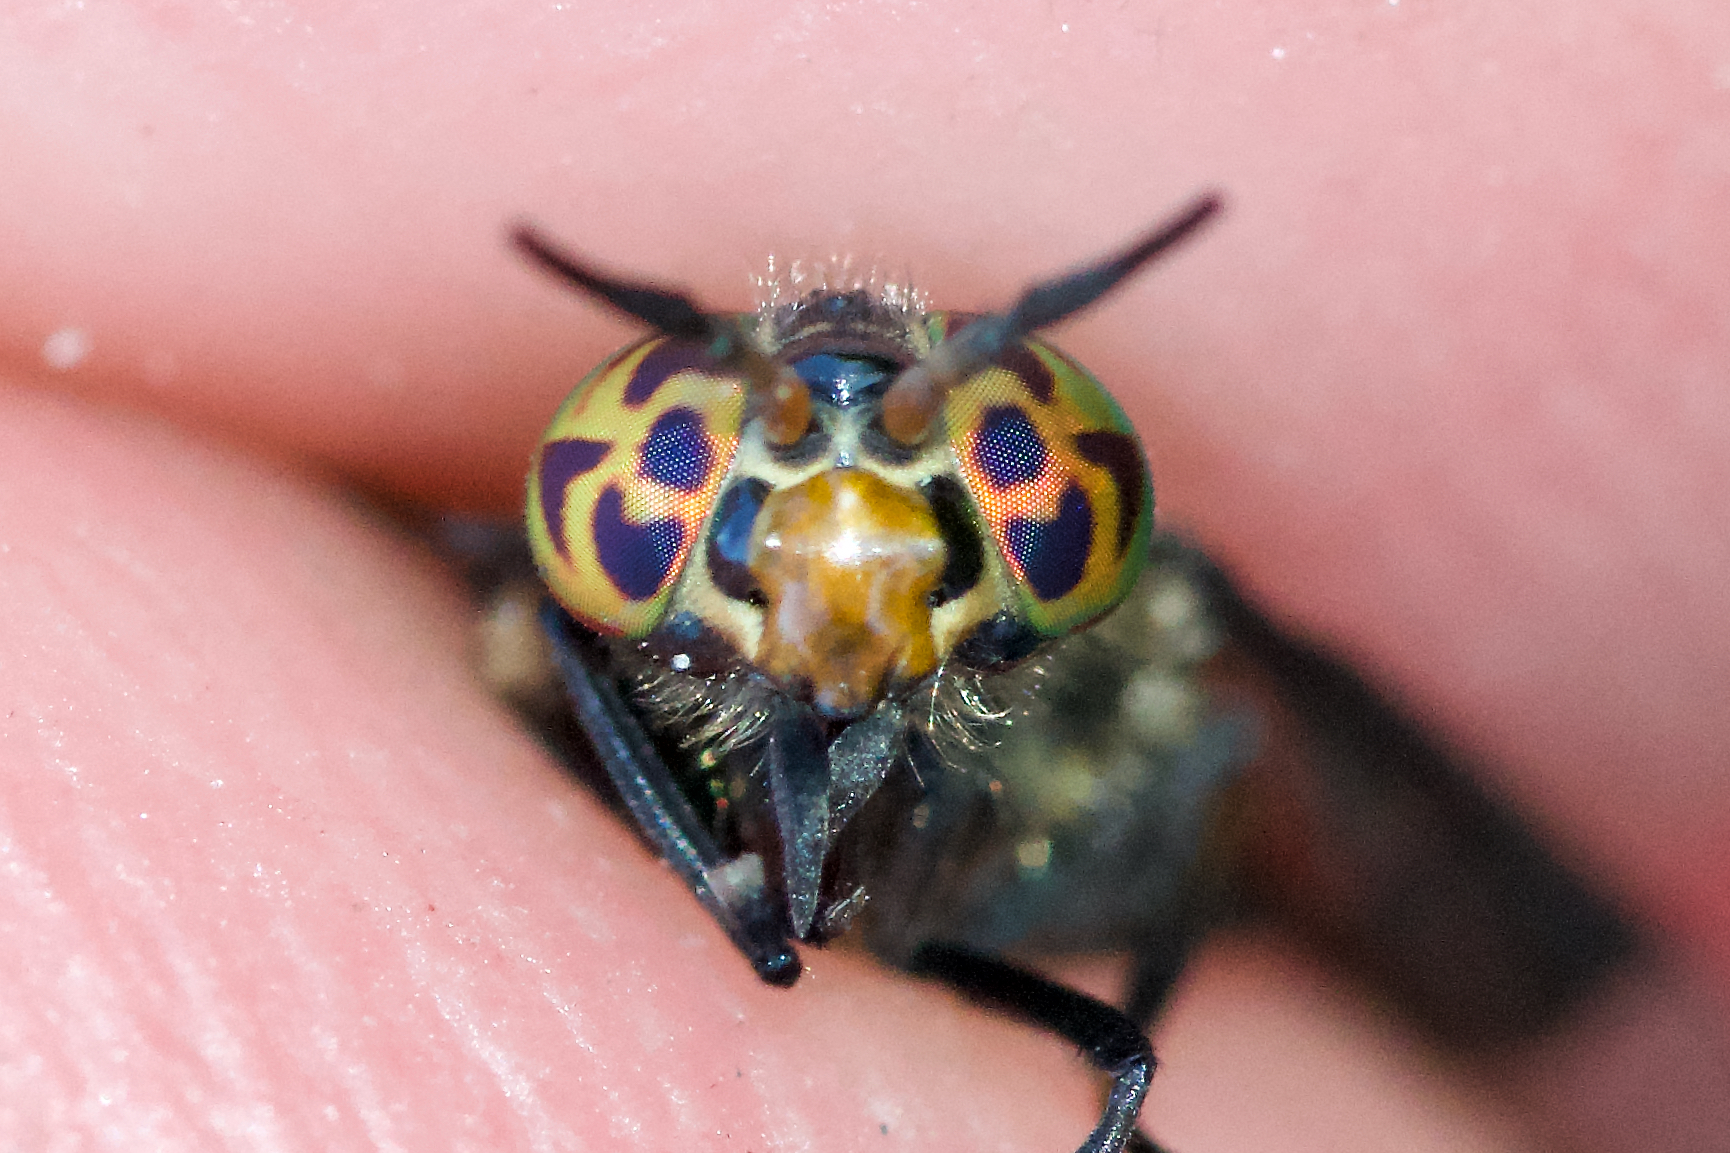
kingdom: Animalia
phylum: Arthropoda
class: Insecta
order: Diptera
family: Tabanidae
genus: Chrysops
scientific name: Chrysops niger
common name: Black deer fly
